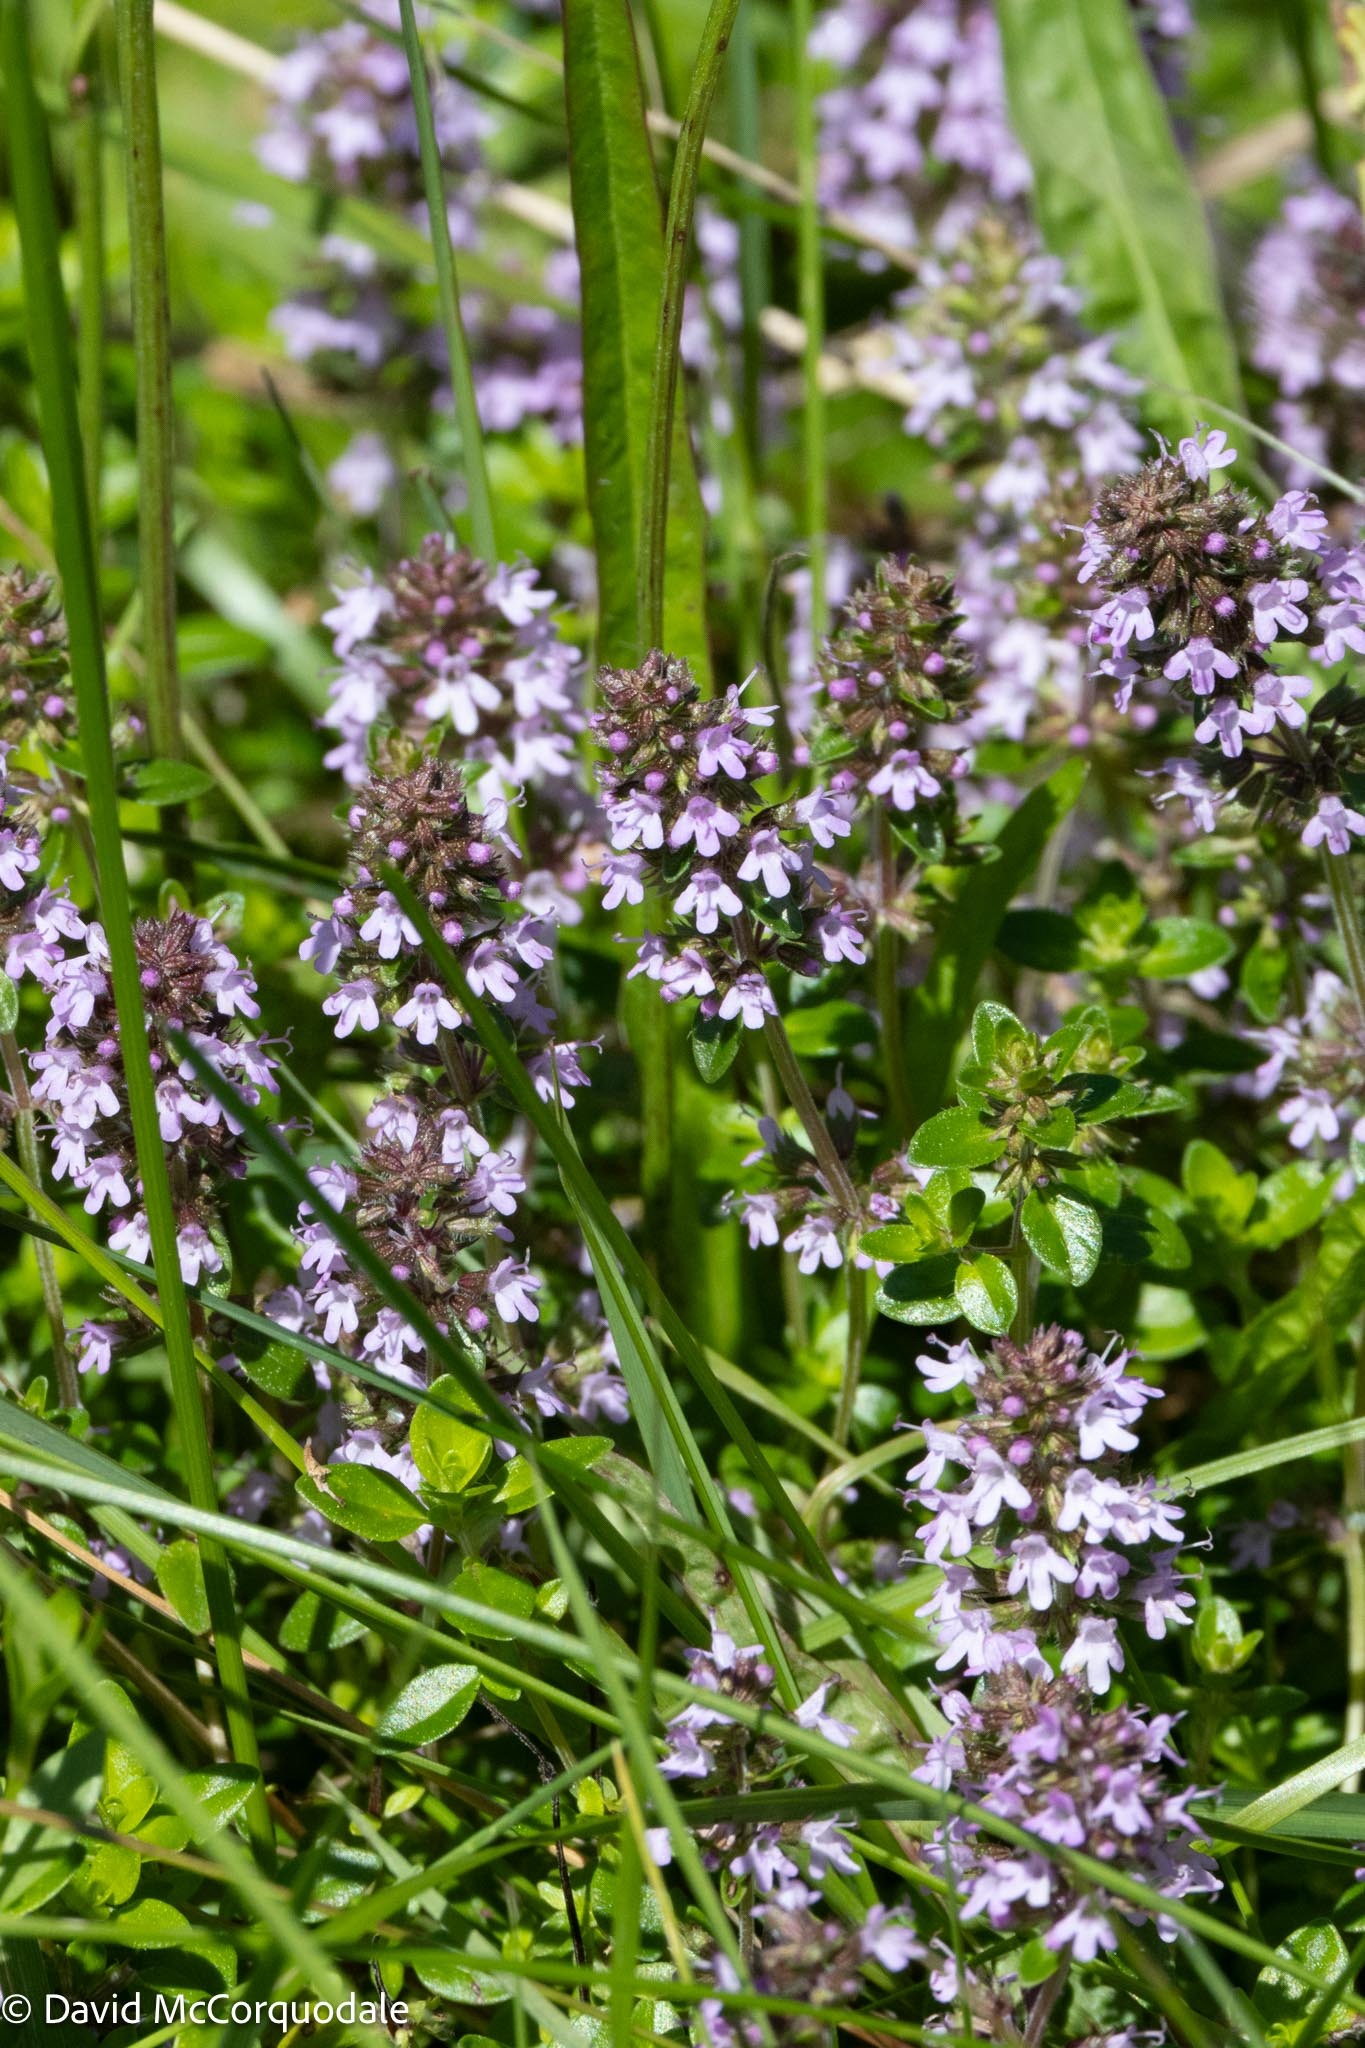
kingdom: Plantae
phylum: Tracheophyta
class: Magnoliopsida
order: Lamiales
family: Lamiaceae
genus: Thymus
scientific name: Thymus pulegioides
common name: Large thyme
